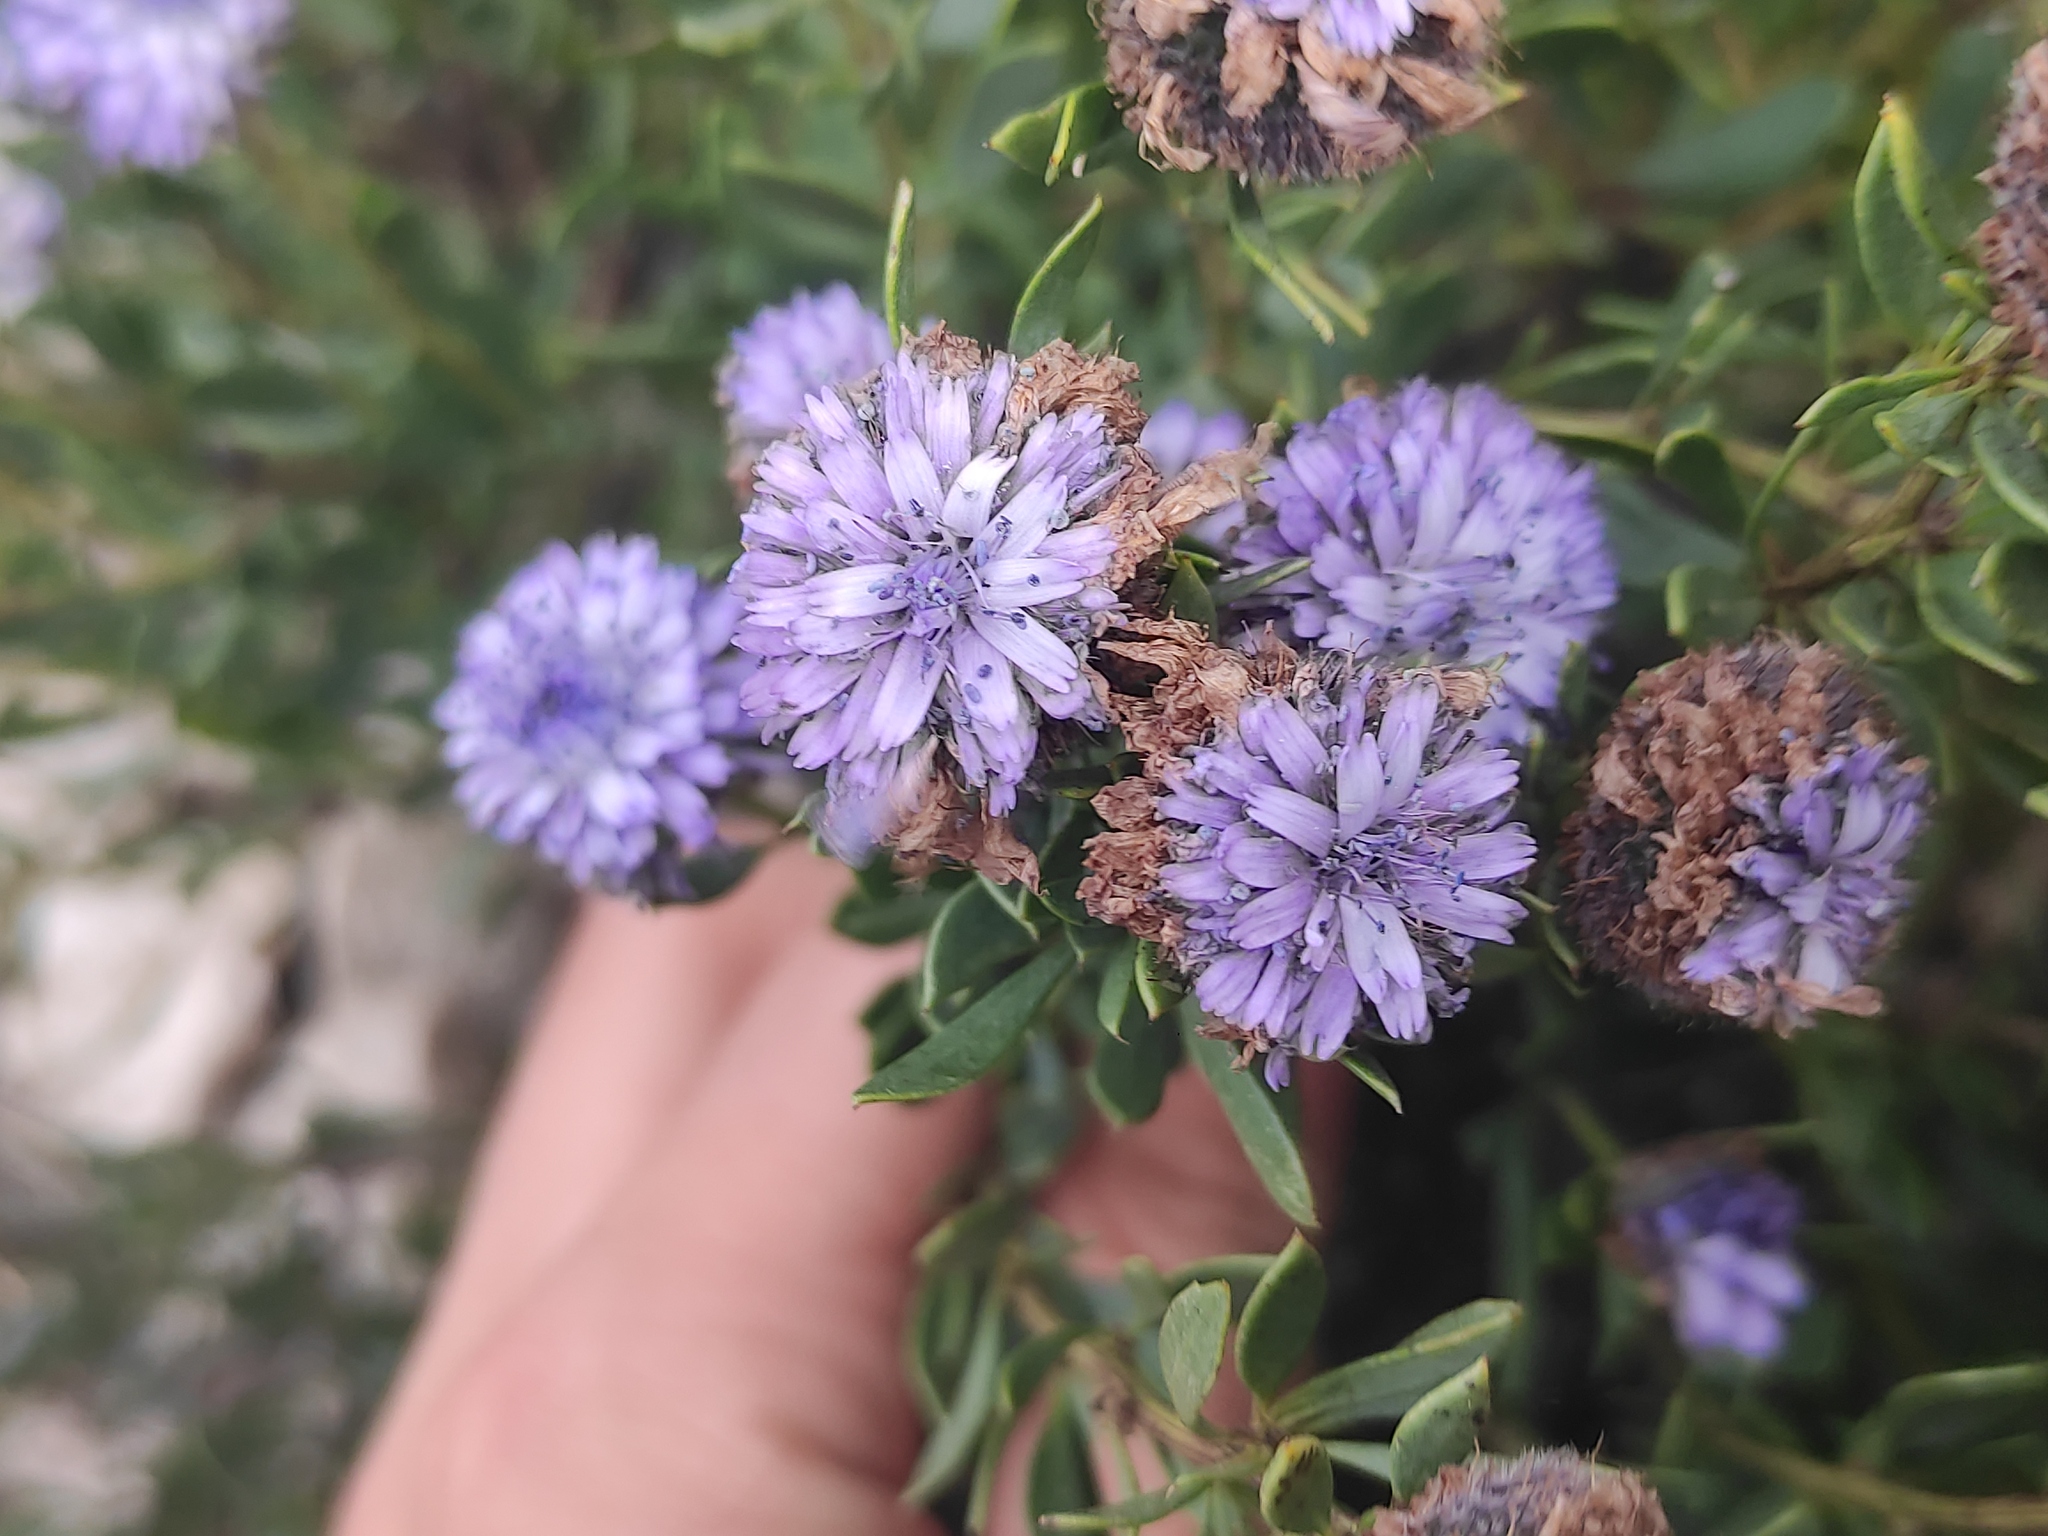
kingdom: Plantae
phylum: Tracheophyta
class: Magnoliopsida
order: Lamiales
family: Plantaginaceae
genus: Globularia
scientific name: Globularia alypum
